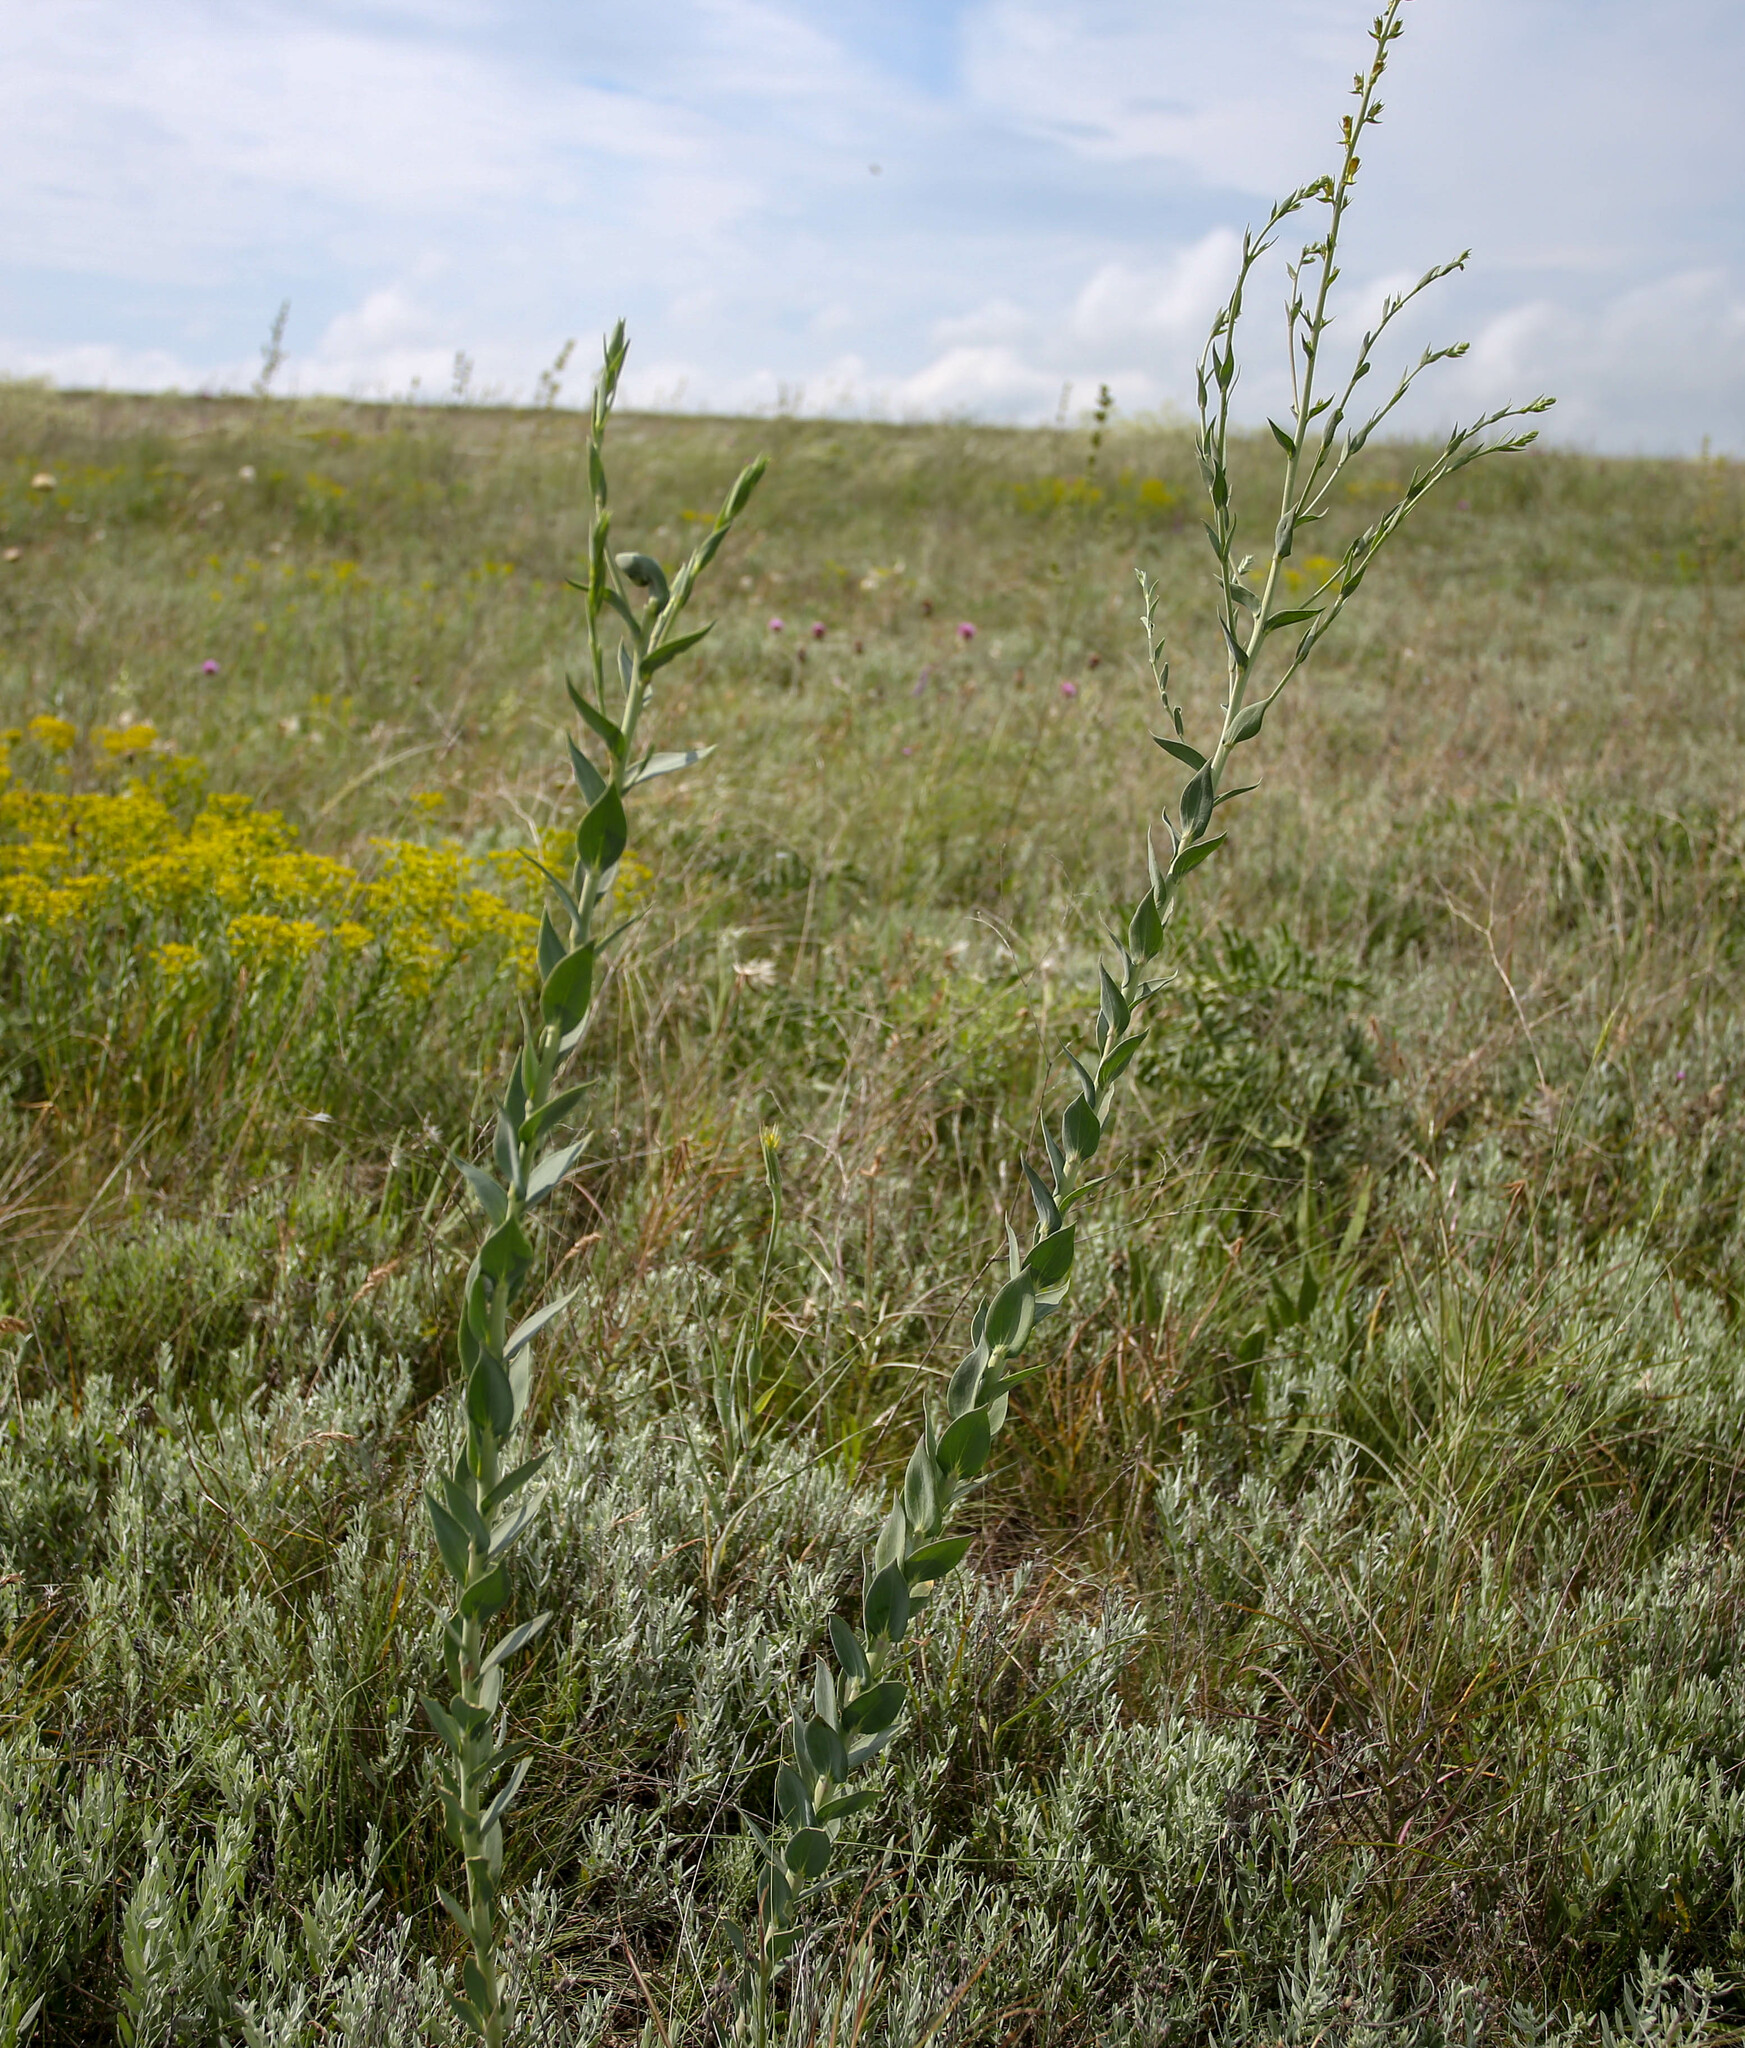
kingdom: Plantae
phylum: Tracheophyta
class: Magnoliopsida
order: Lamiales
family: Plantaginaceae
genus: Linaria
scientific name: Linaria genistifolia
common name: Broomleaf toadflax
